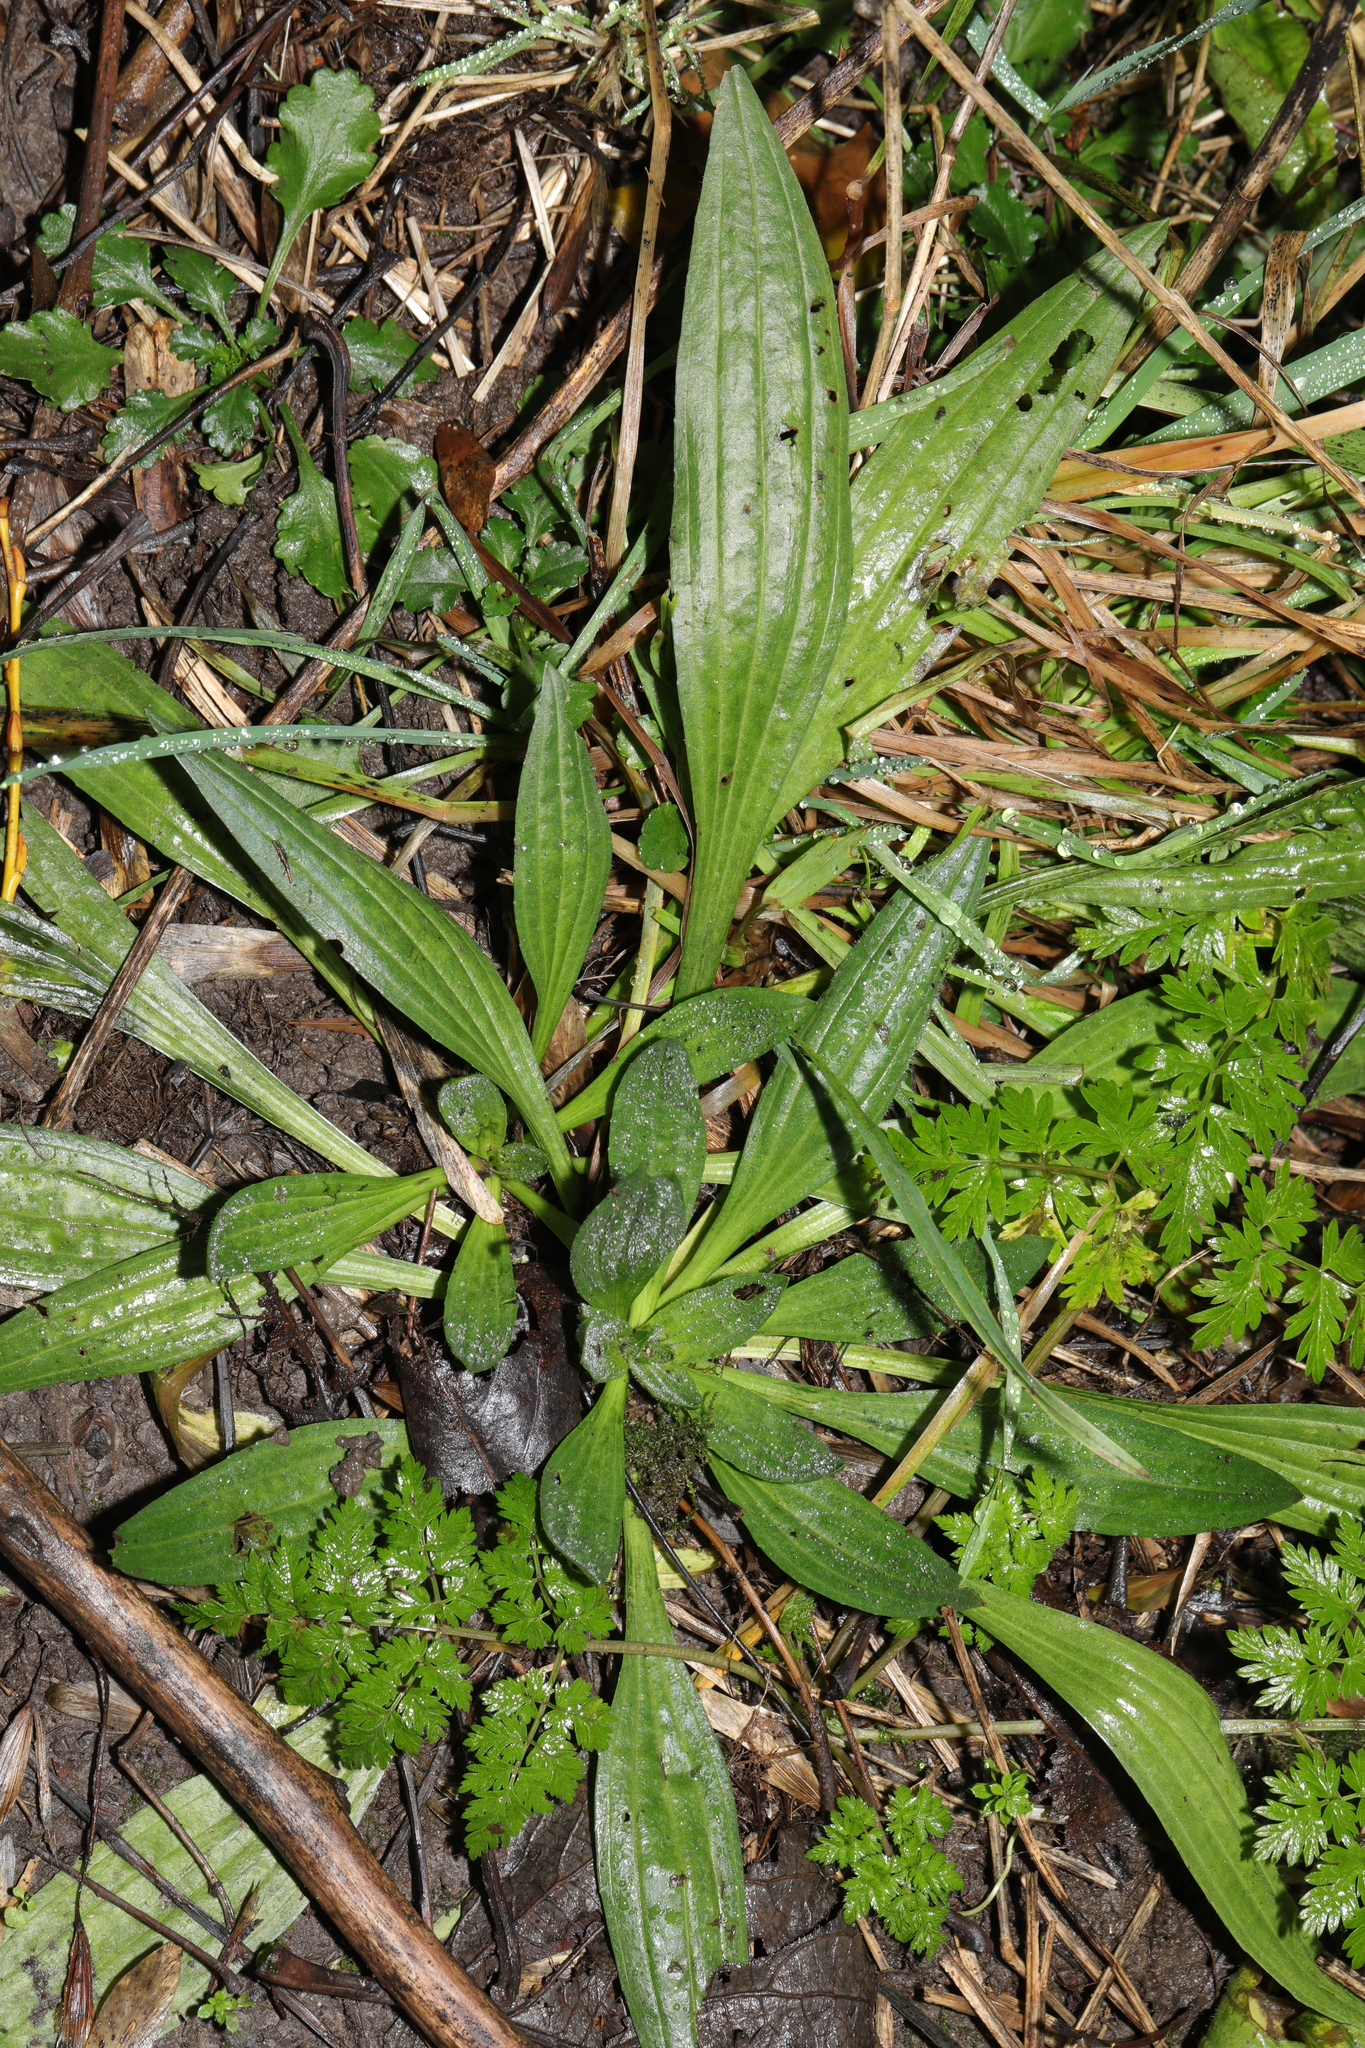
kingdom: Plantae
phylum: Tracheophyta
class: Magnoliopsida
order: Lamiales
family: Plantaginaceae
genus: Plantago
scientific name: Plantago lanceolata
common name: Ribwort plantain
